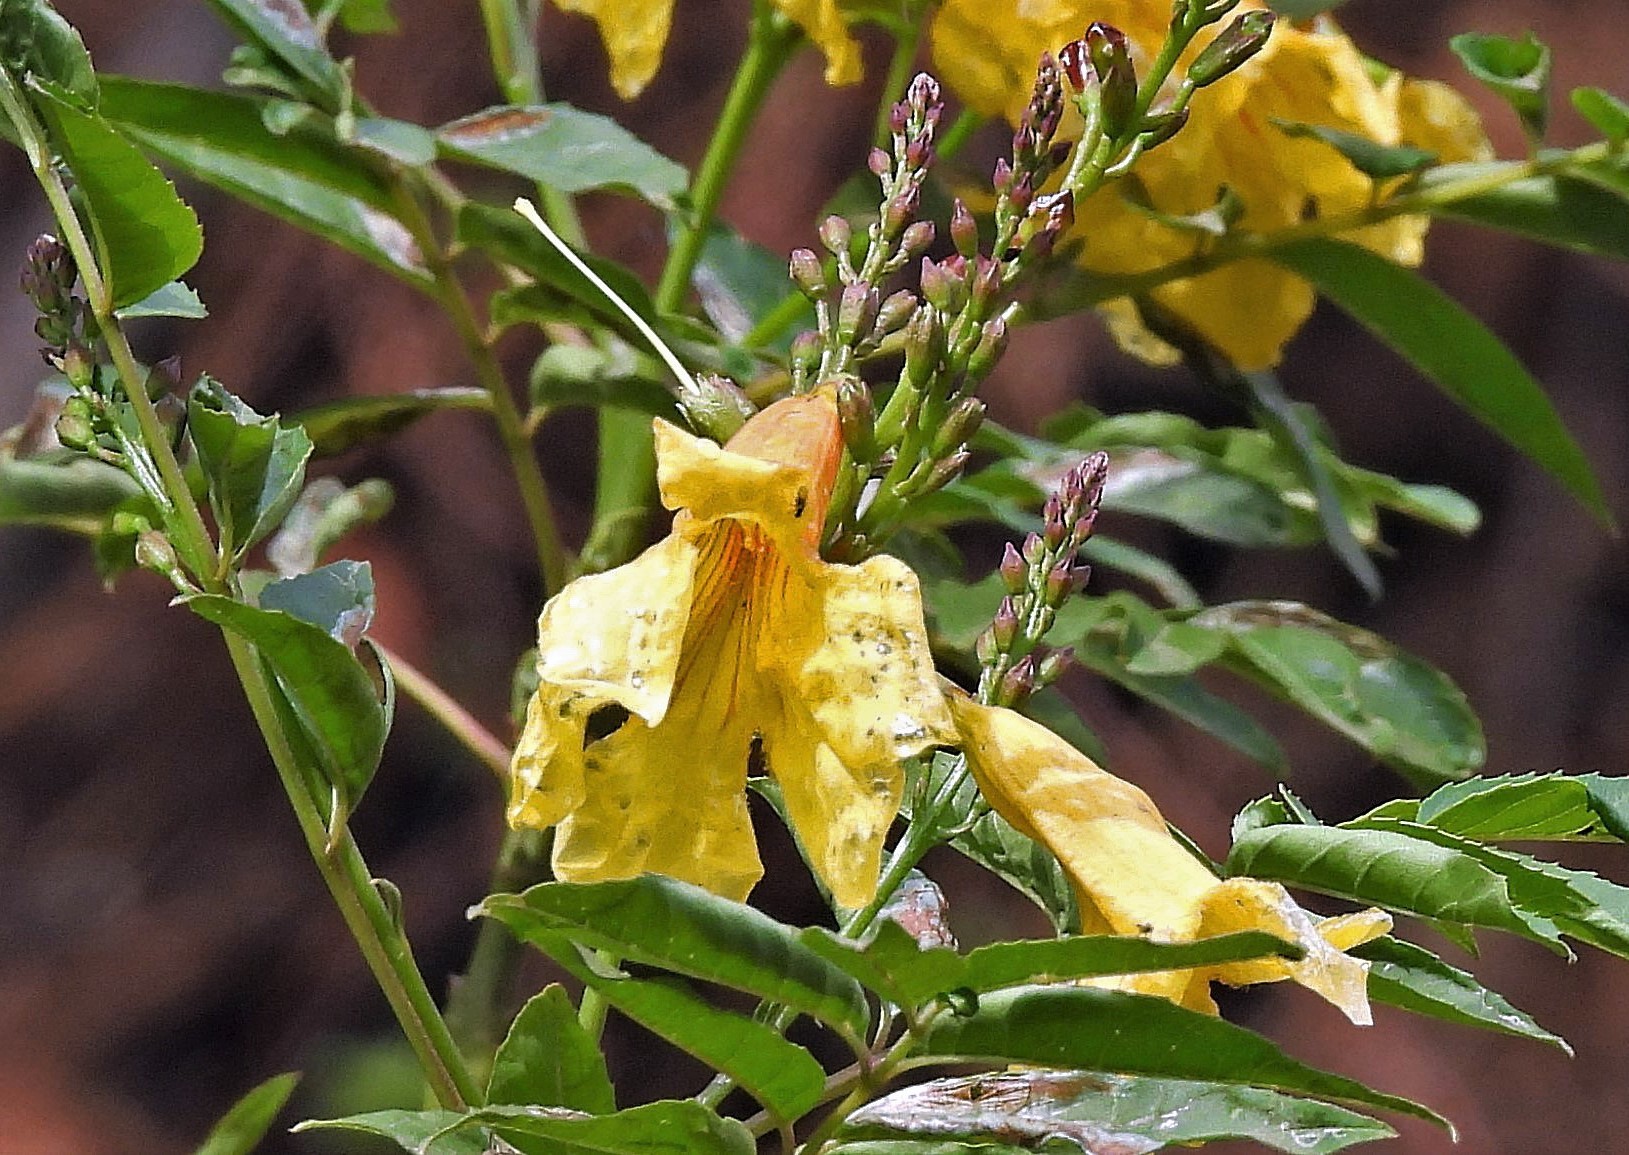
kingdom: Plantae
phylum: Tracheophyta
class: Magnoliopsida
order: Lamiales
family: Bignoniaceae
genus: Tecoma
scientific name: Tecoma stans
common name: Yellow trumpetbush
